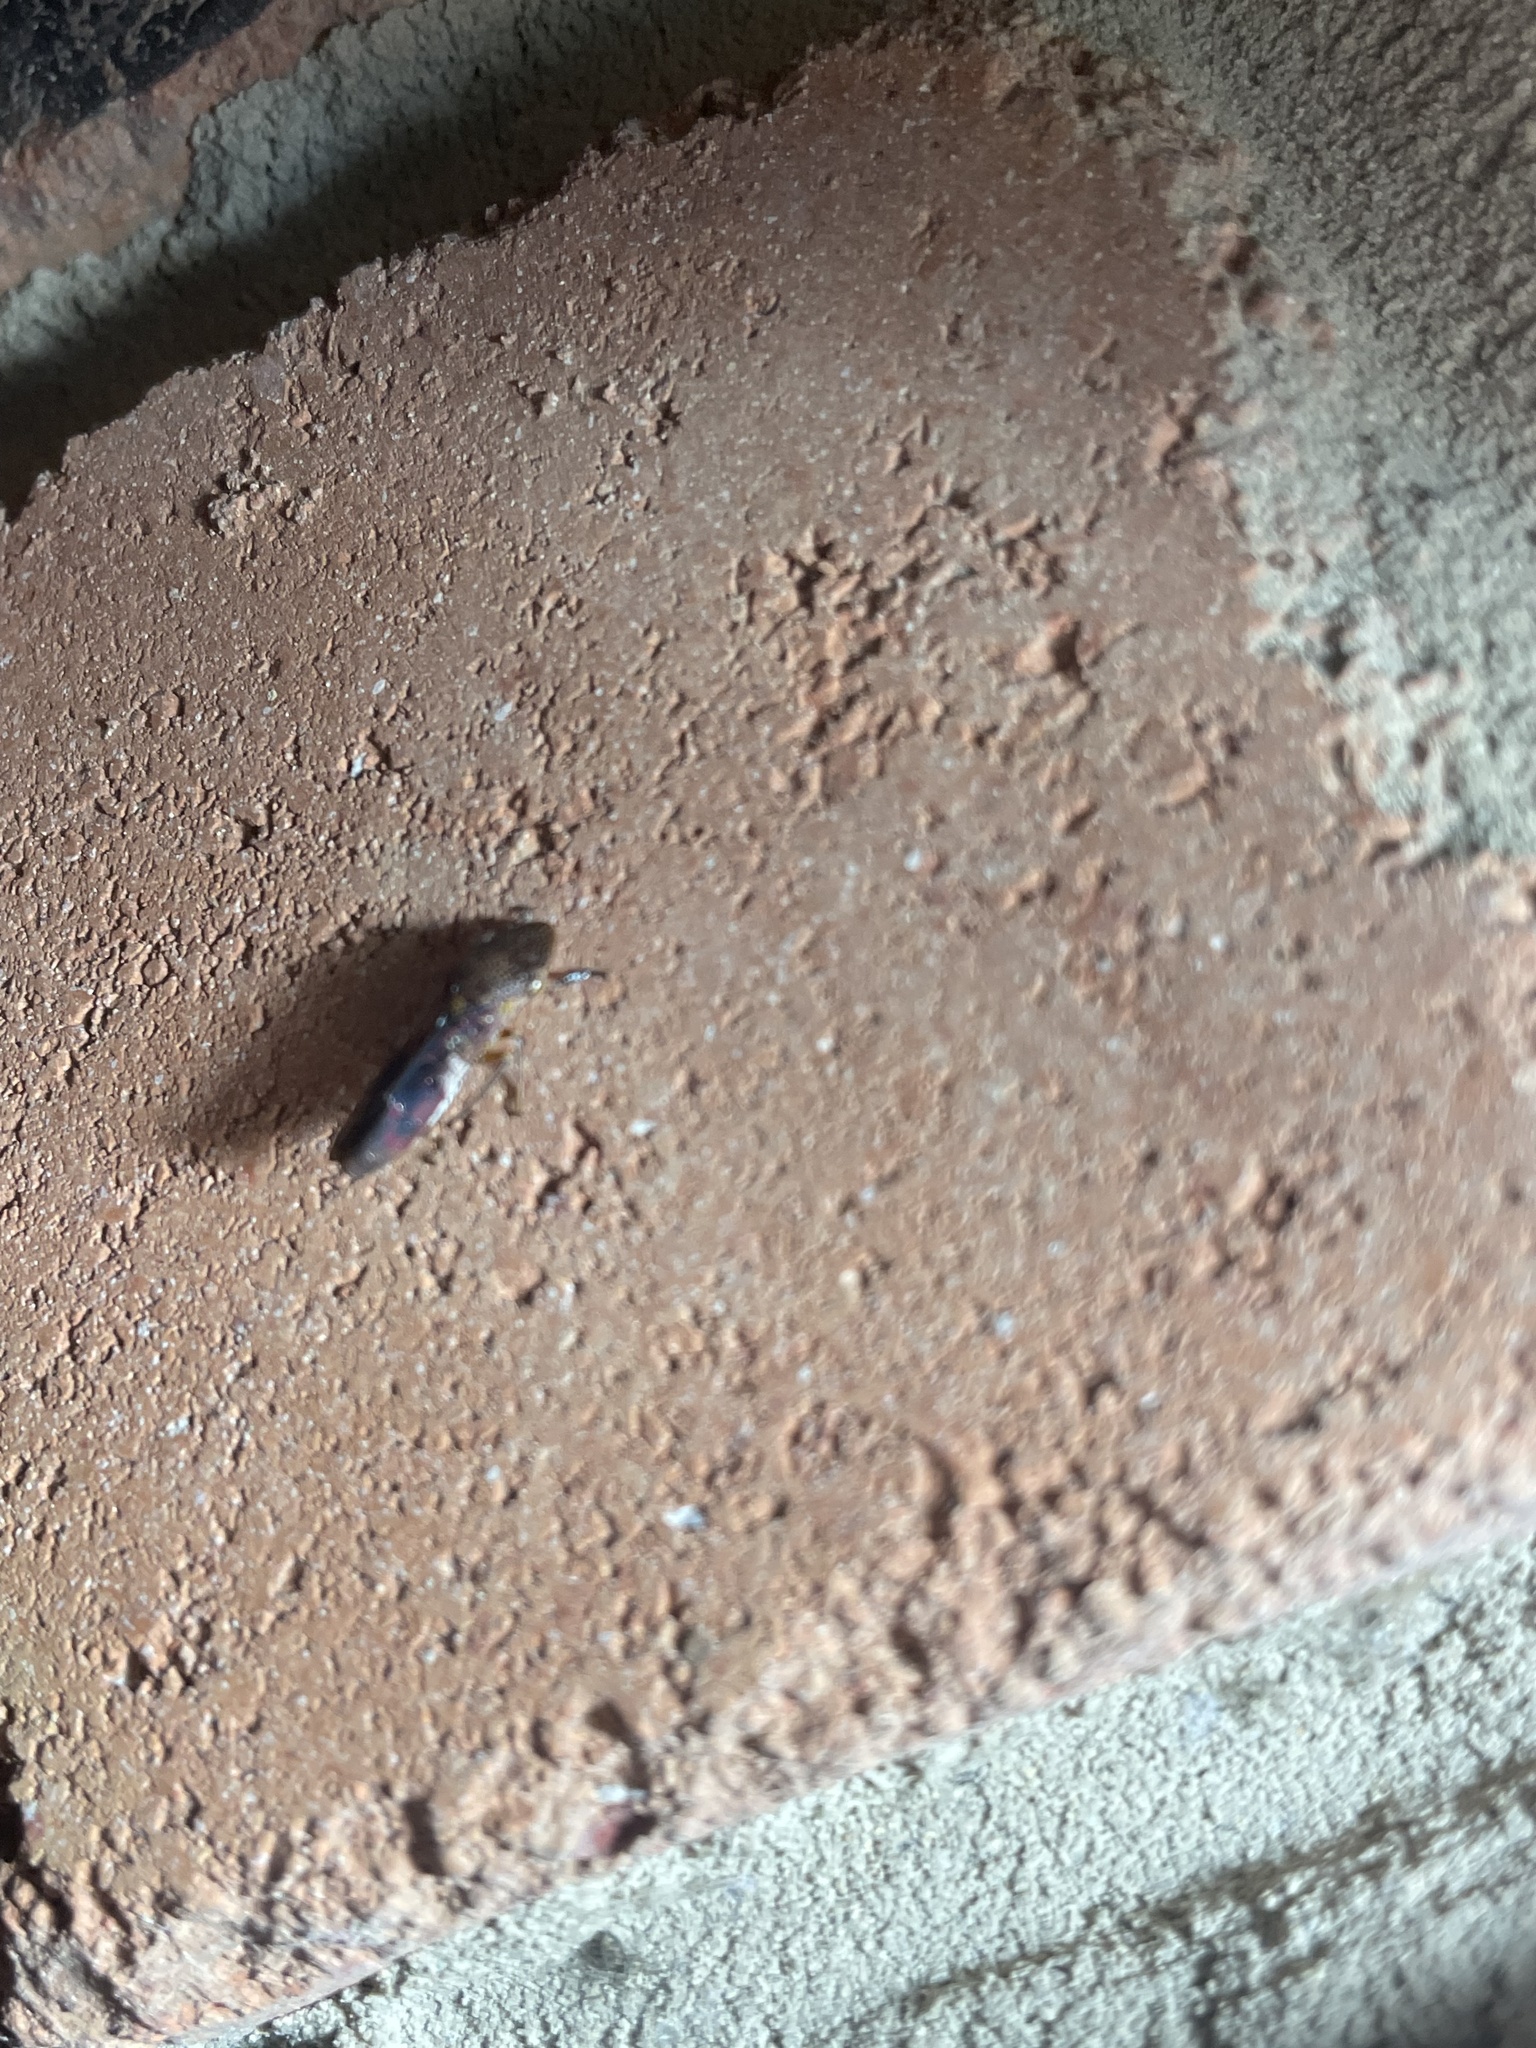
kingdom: Animalia
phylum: Arthropoda
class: Insecta
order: Hemiptera
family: Cicadellidae
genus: Homalodisca
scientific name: Homalodisca vitripennis
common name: Glassy-winged sharpshooter
